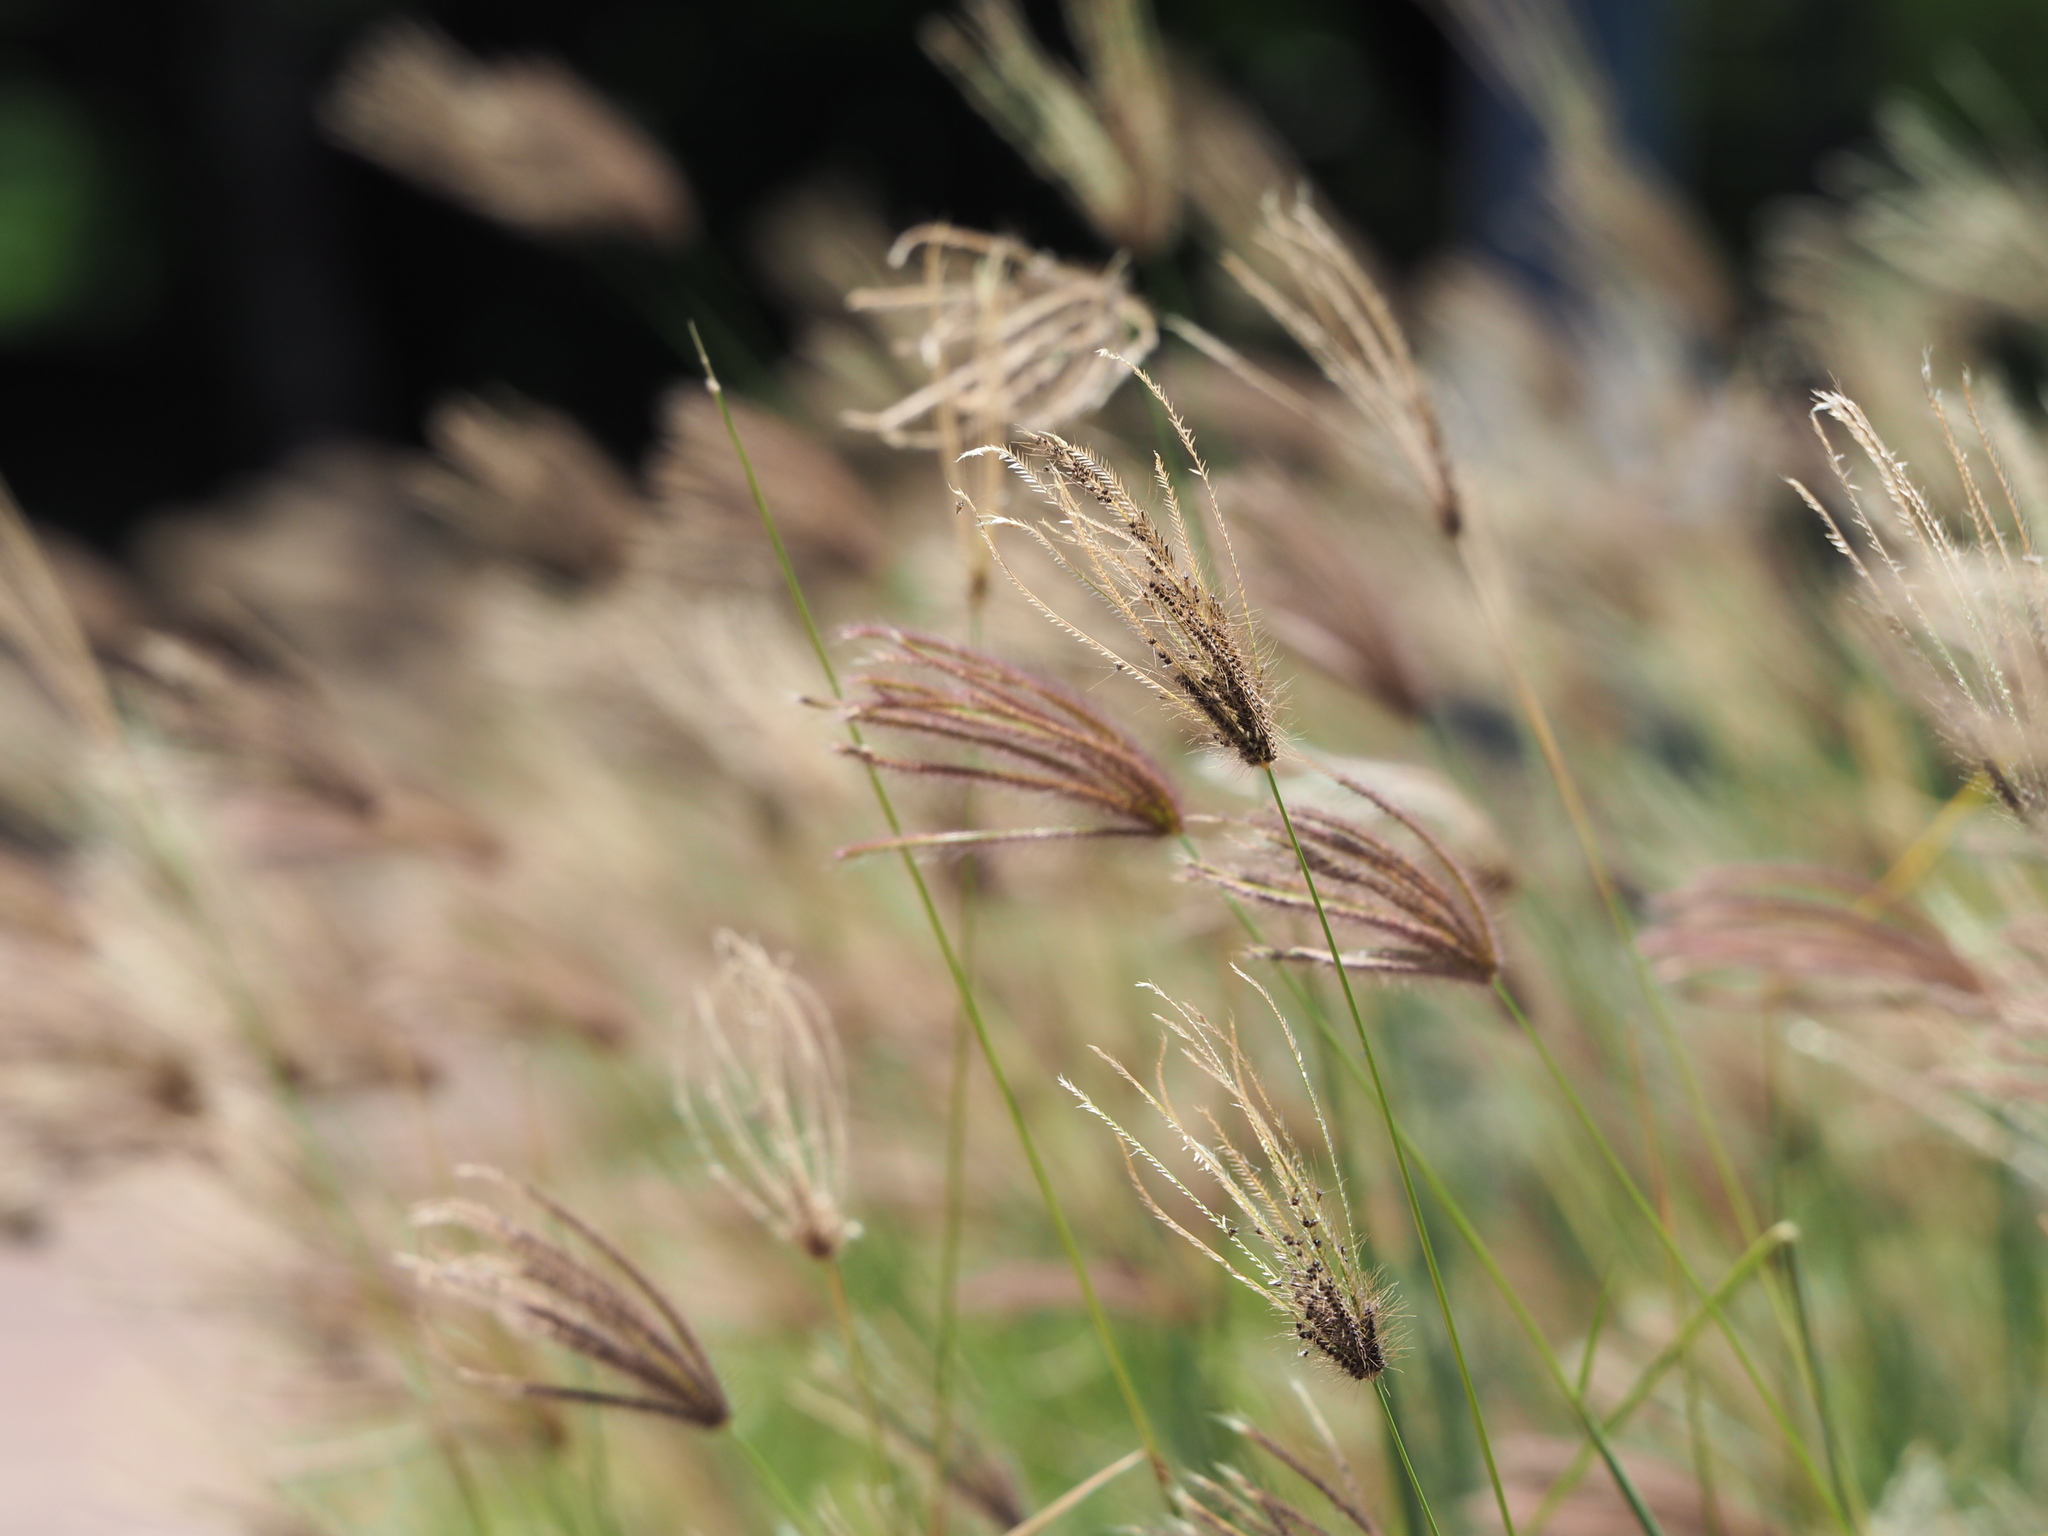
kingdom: Plantae
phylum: Tracheophyta
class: Liliopsida
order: Poales
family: Poaceae
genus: Chloris
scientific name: Chloris barbata
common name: Swollen fingergrass
